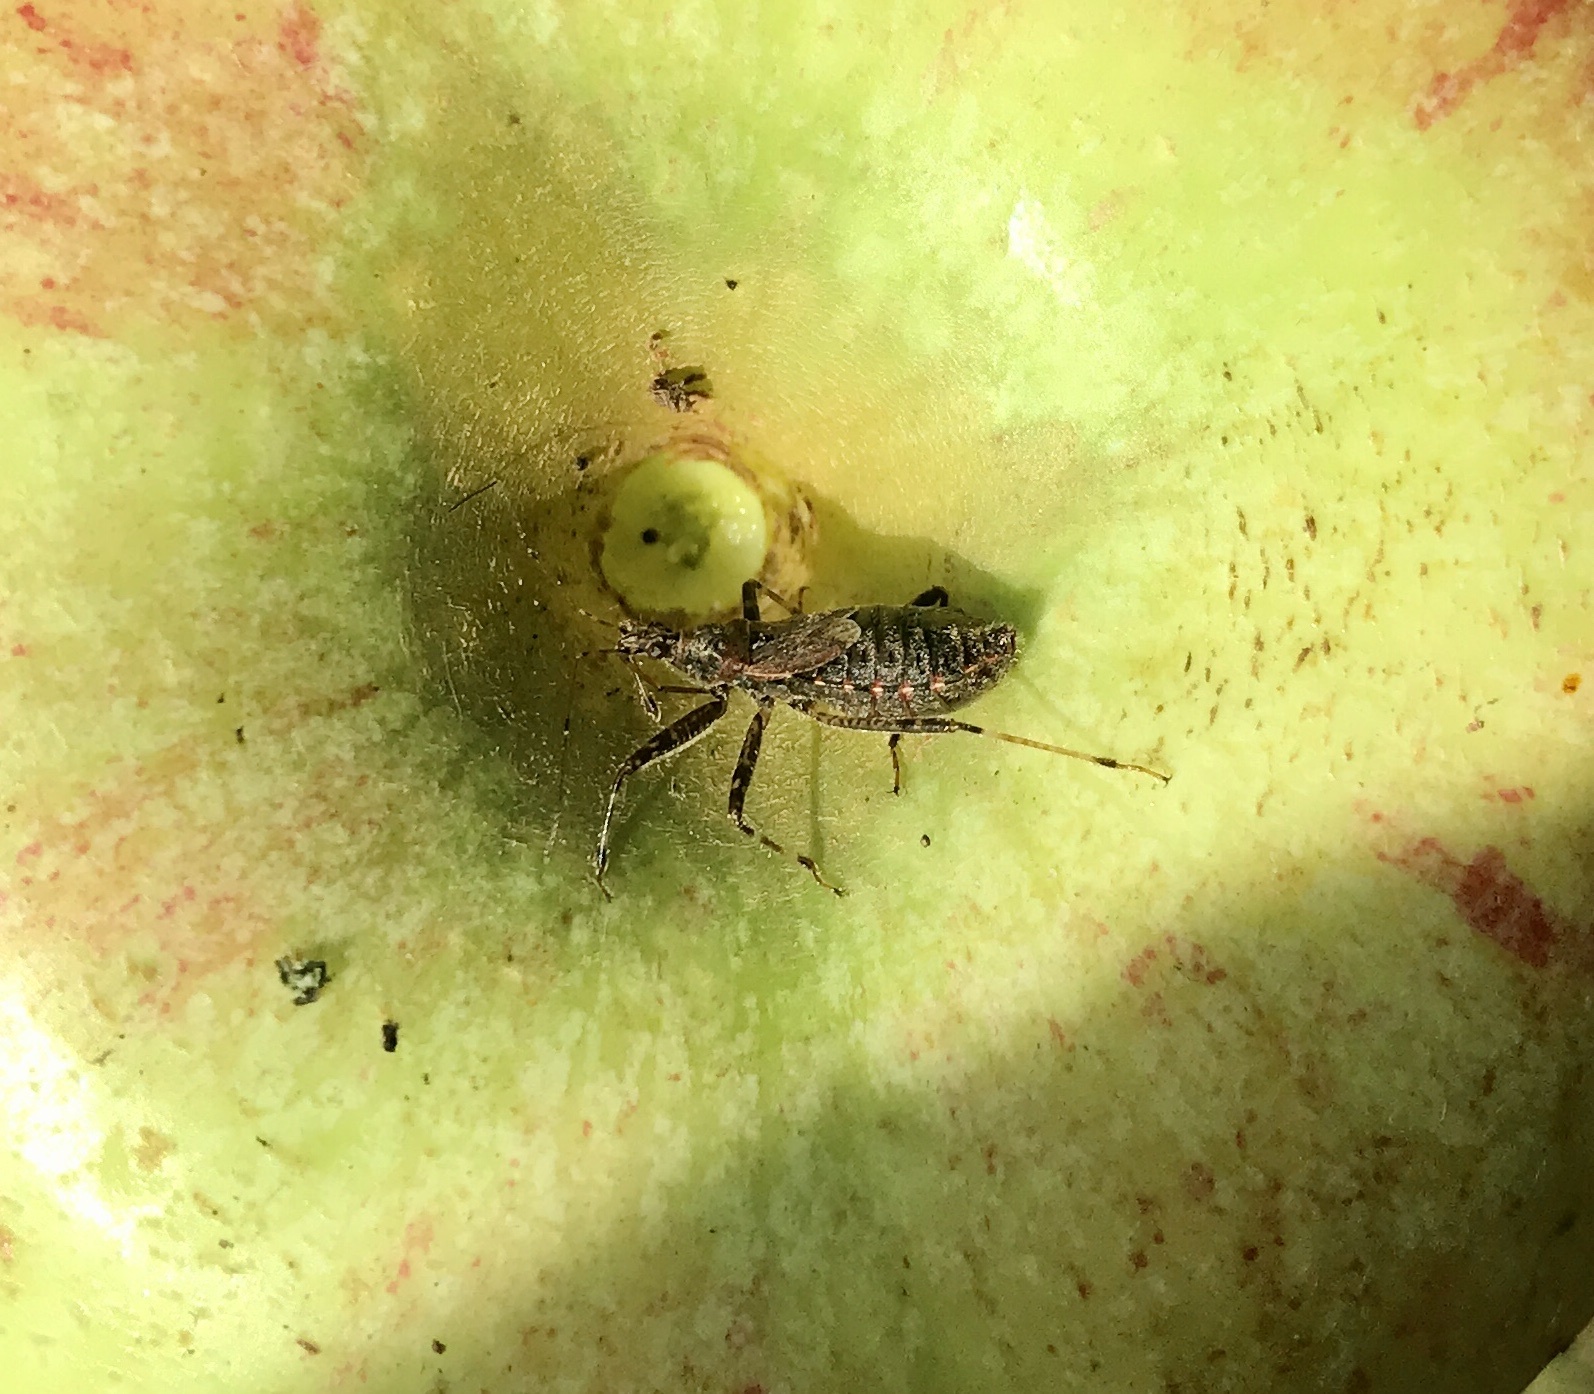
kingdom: Animalia
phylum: Arthropoda
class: Insecta
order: Hemiptera
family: Nabidae
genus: Himacerus
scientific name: Himacerus apterus
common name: Tree damsel bug
